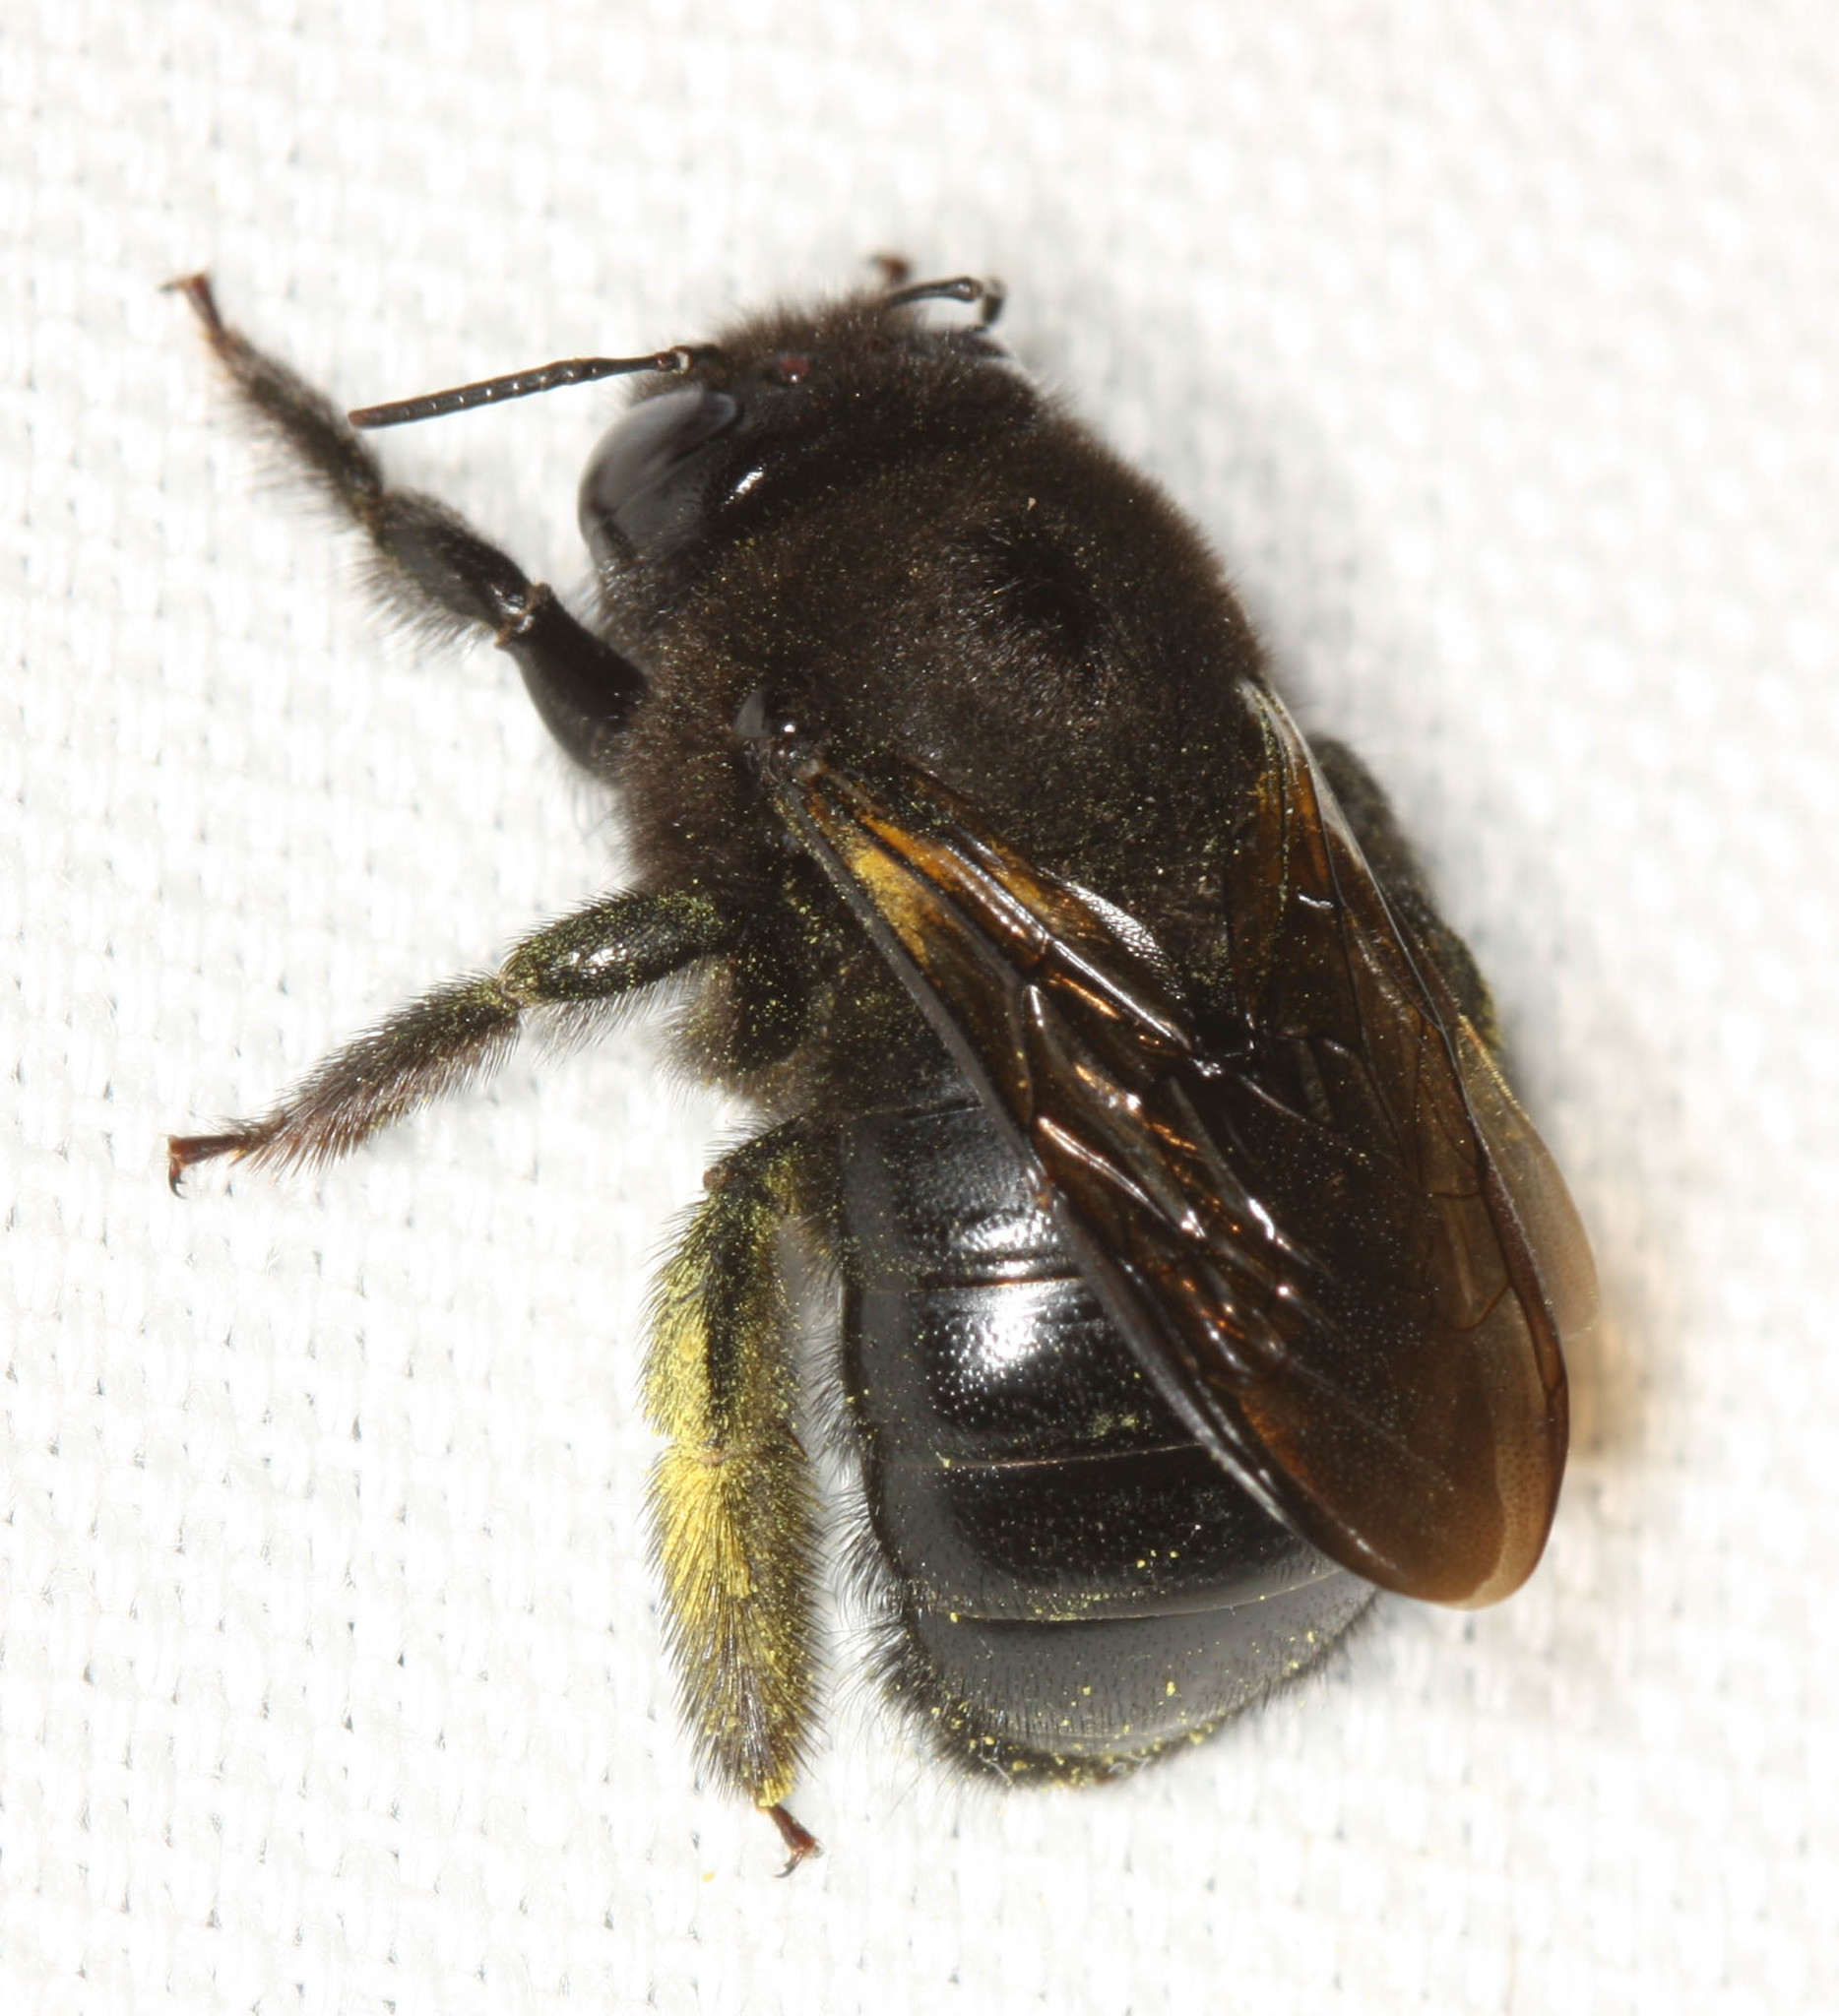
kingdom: Animalia
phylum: Arthropoda
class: Insecta
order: Hymenoptera
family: Apidae
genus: Xylocopa
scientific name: Xylocopa tabaniformis
